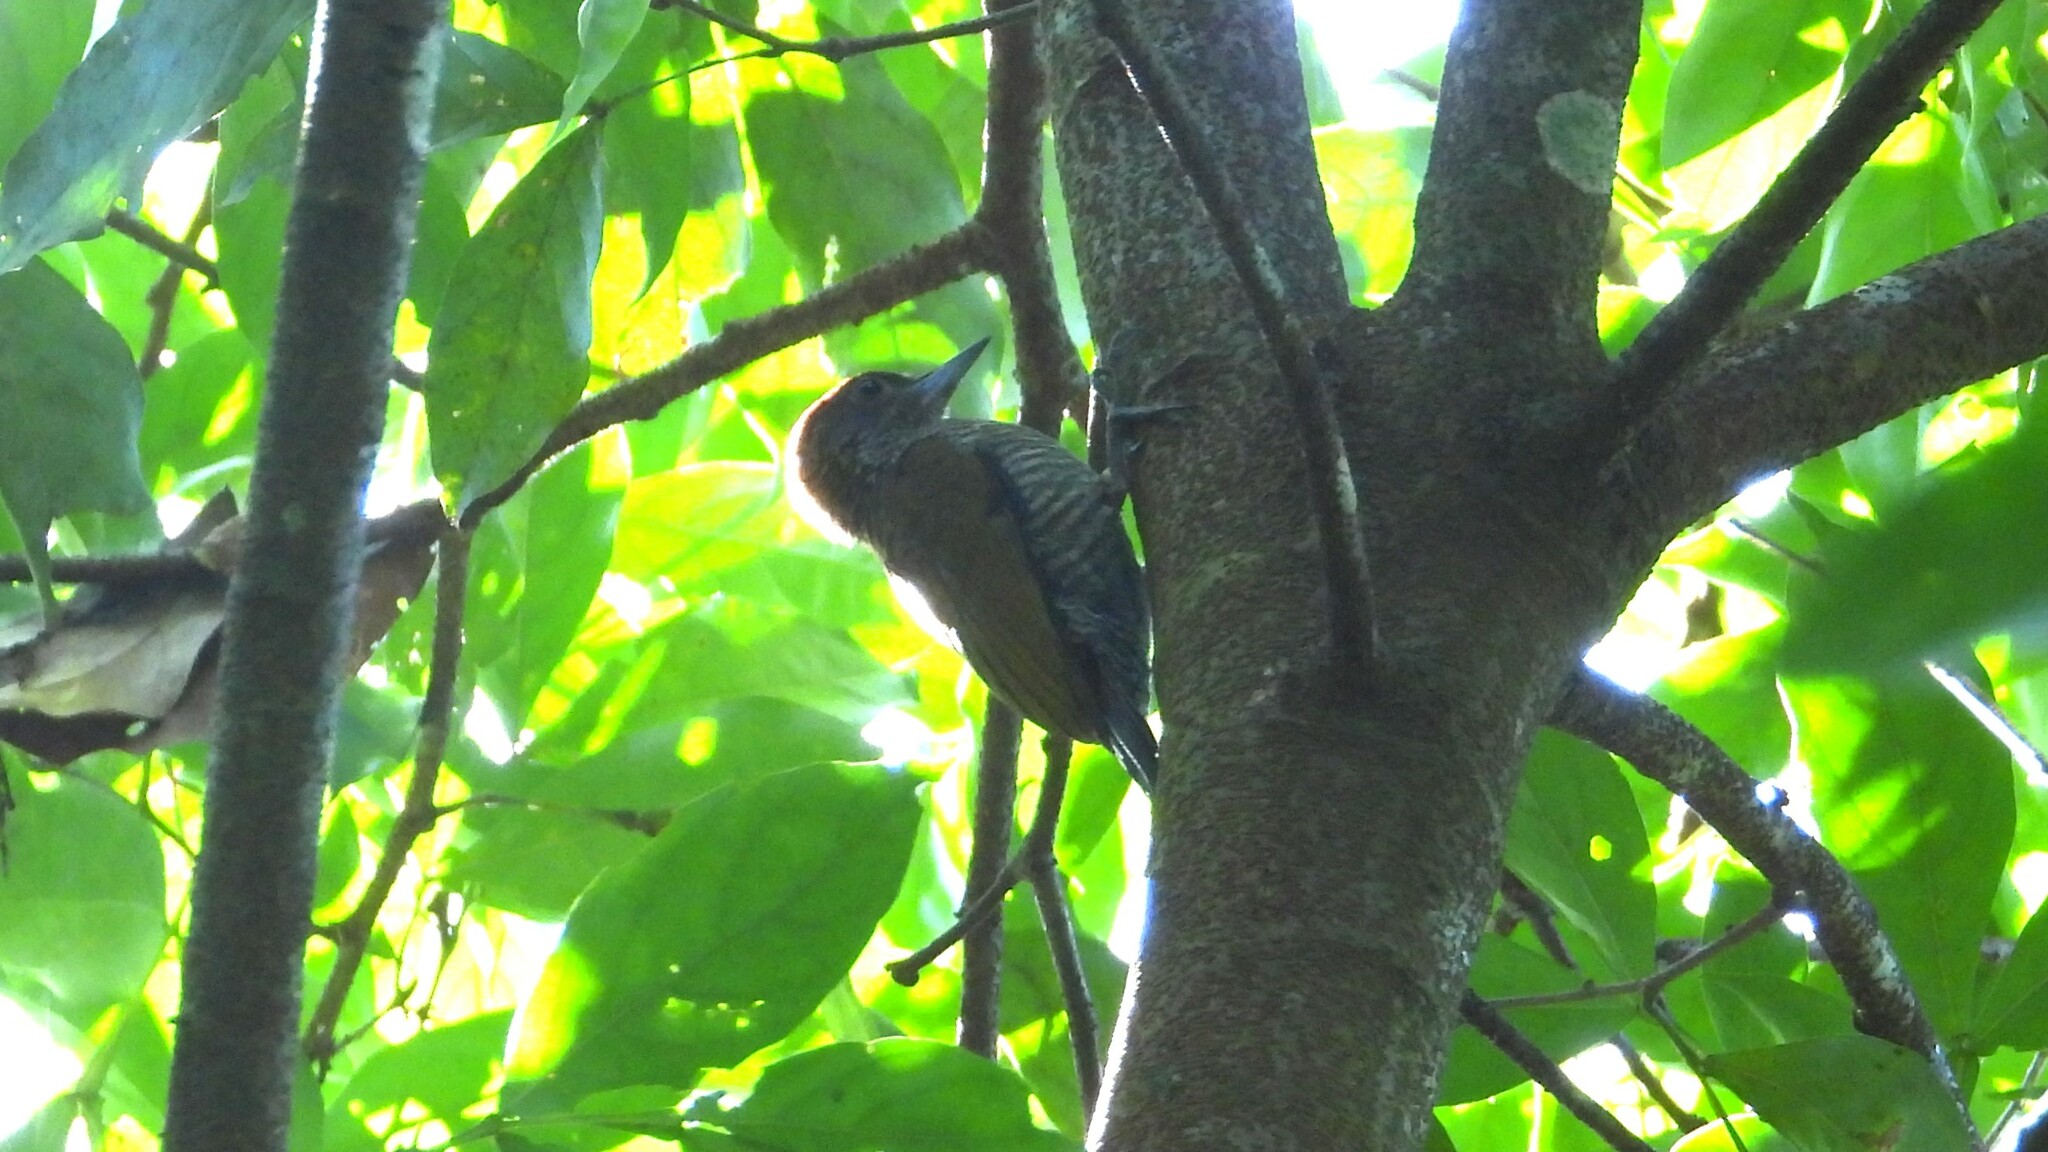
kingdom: Animalia
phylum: Chordata
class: Aves
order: Piciformes
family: Picidae
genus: Veniliornis
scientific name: Veniliornis kirkii
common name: Red-rumped woodpecker
